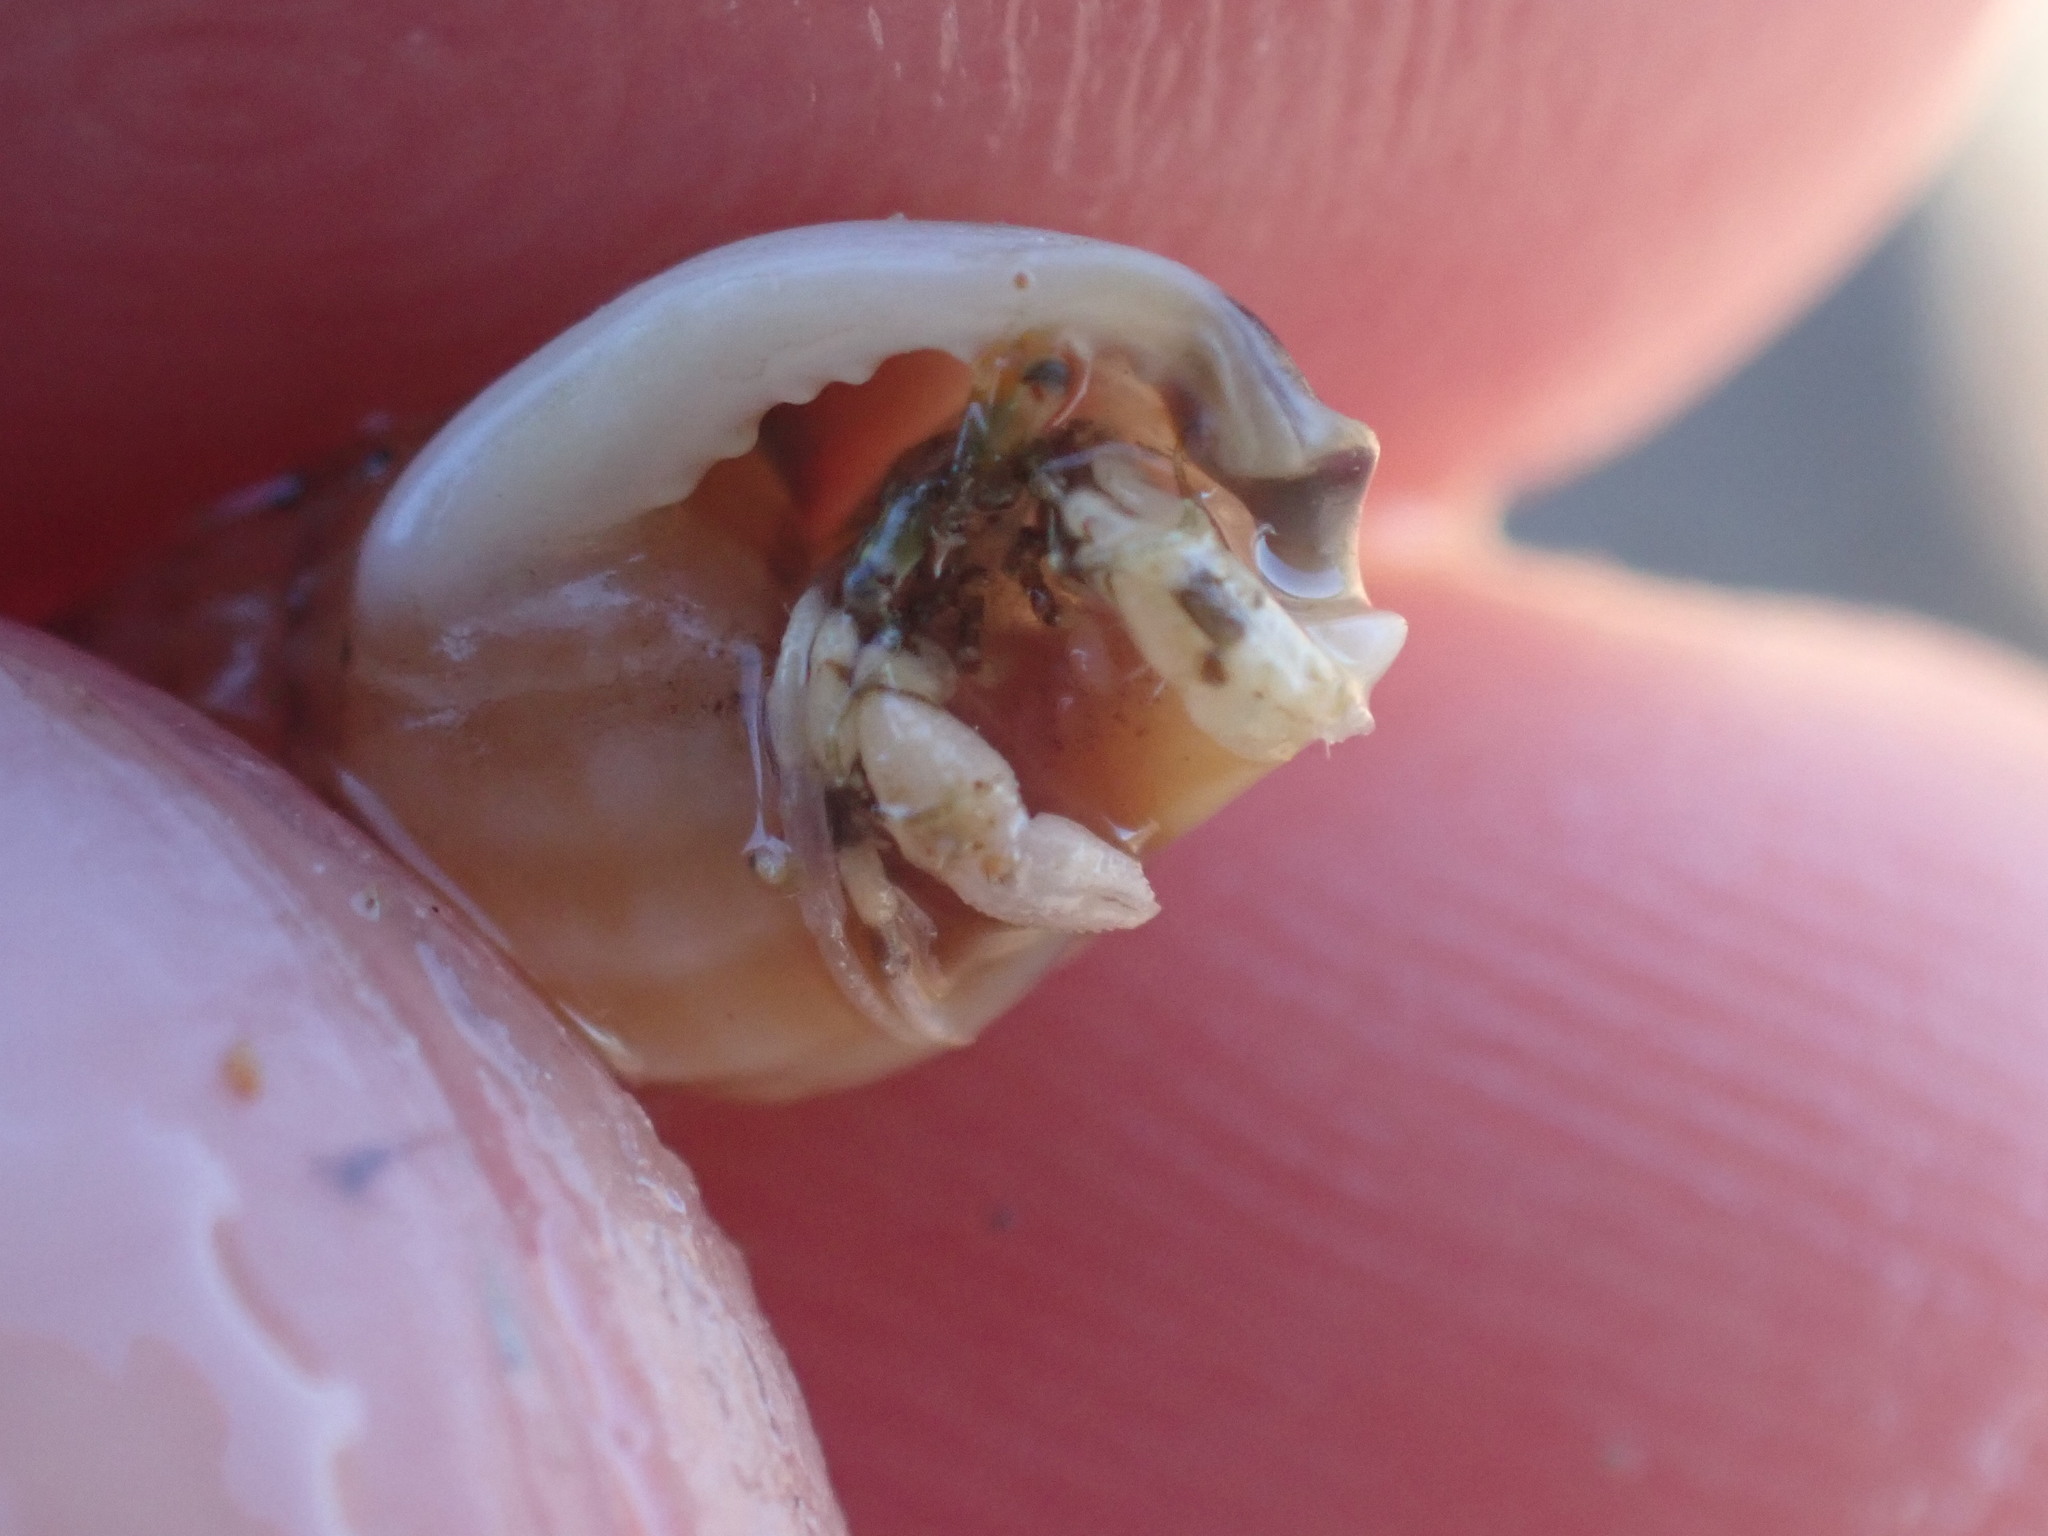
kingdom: Animalia
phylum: Arthropoda
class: Malacostraca
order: Decapoda
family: Paguridae
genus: Pagurus
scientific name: Pagurus novizealandiae
